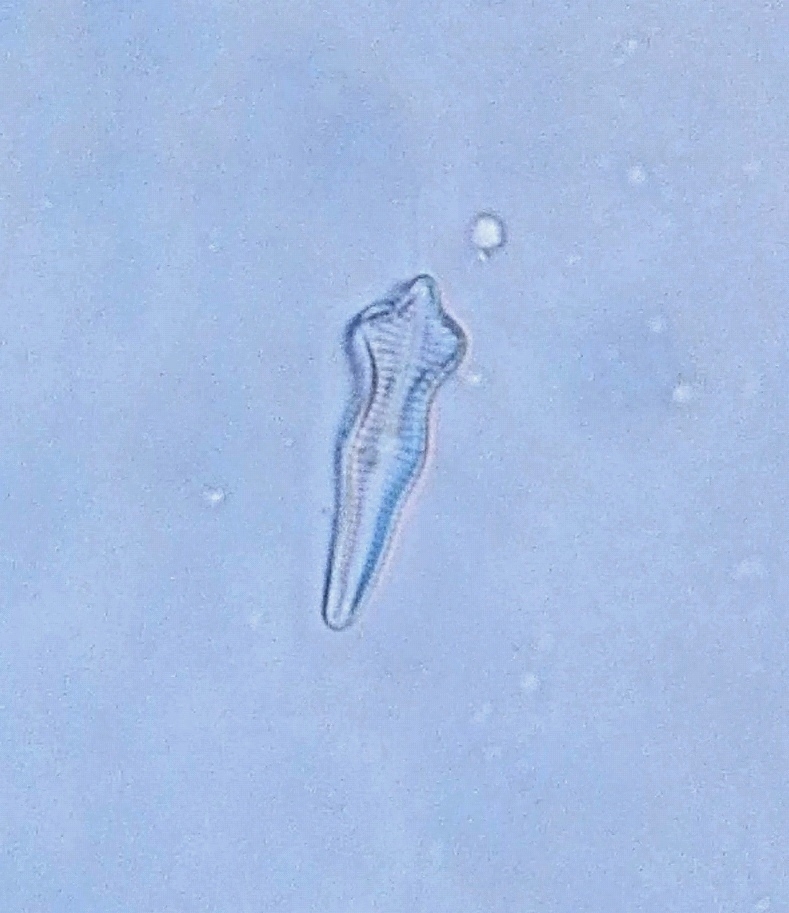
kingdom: Chromista
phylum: Ochrophyta
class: Bacillariophyceae
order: Cymbellales
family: Gomphonemataceae
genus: Gomphonema
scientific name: Gomphonema acuminatum
